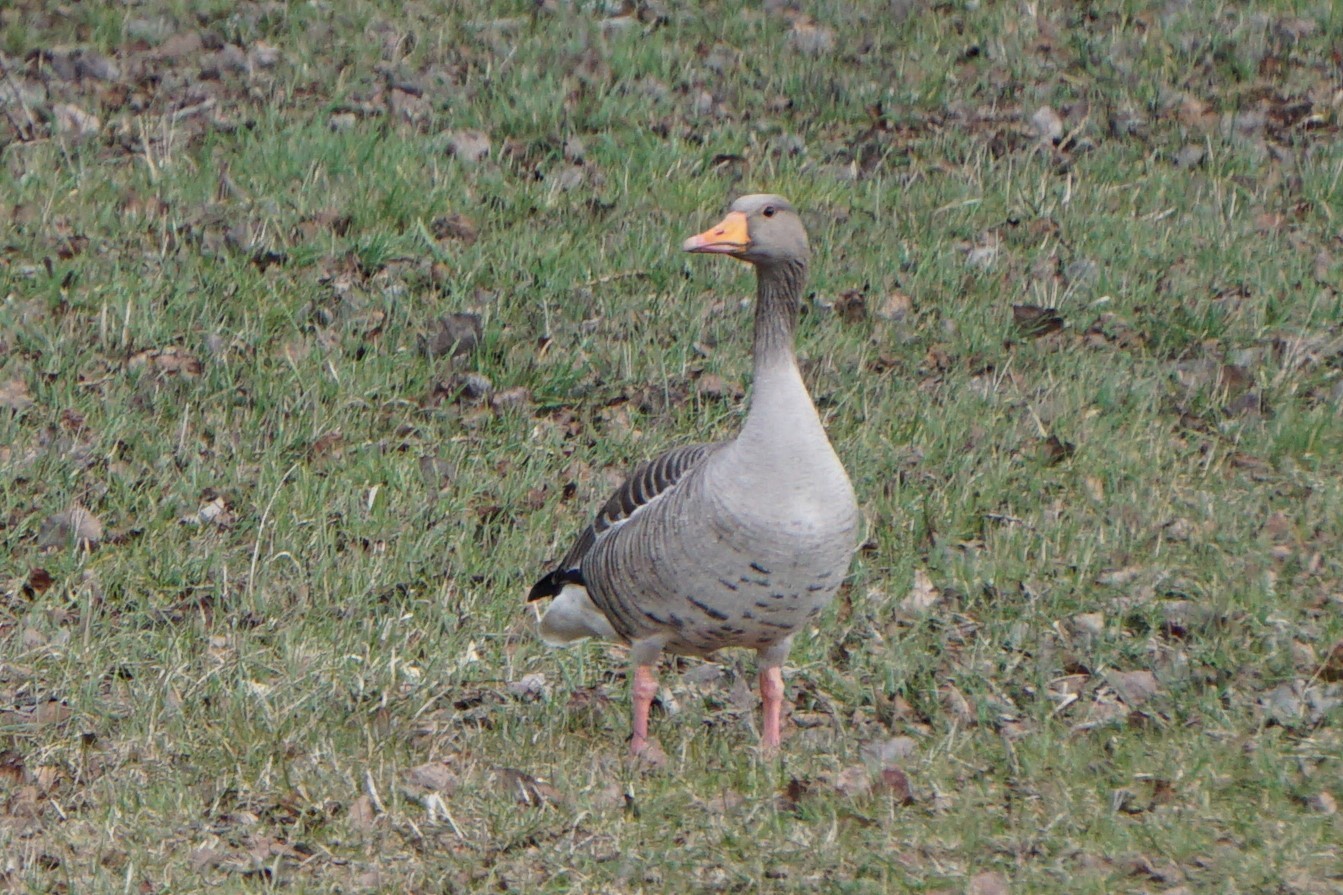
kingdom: Animalia
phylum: Chordata
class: Aves
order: Anseriformes
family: Anatidae
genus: Anser
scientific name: Anser anser
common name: Greylag goose
